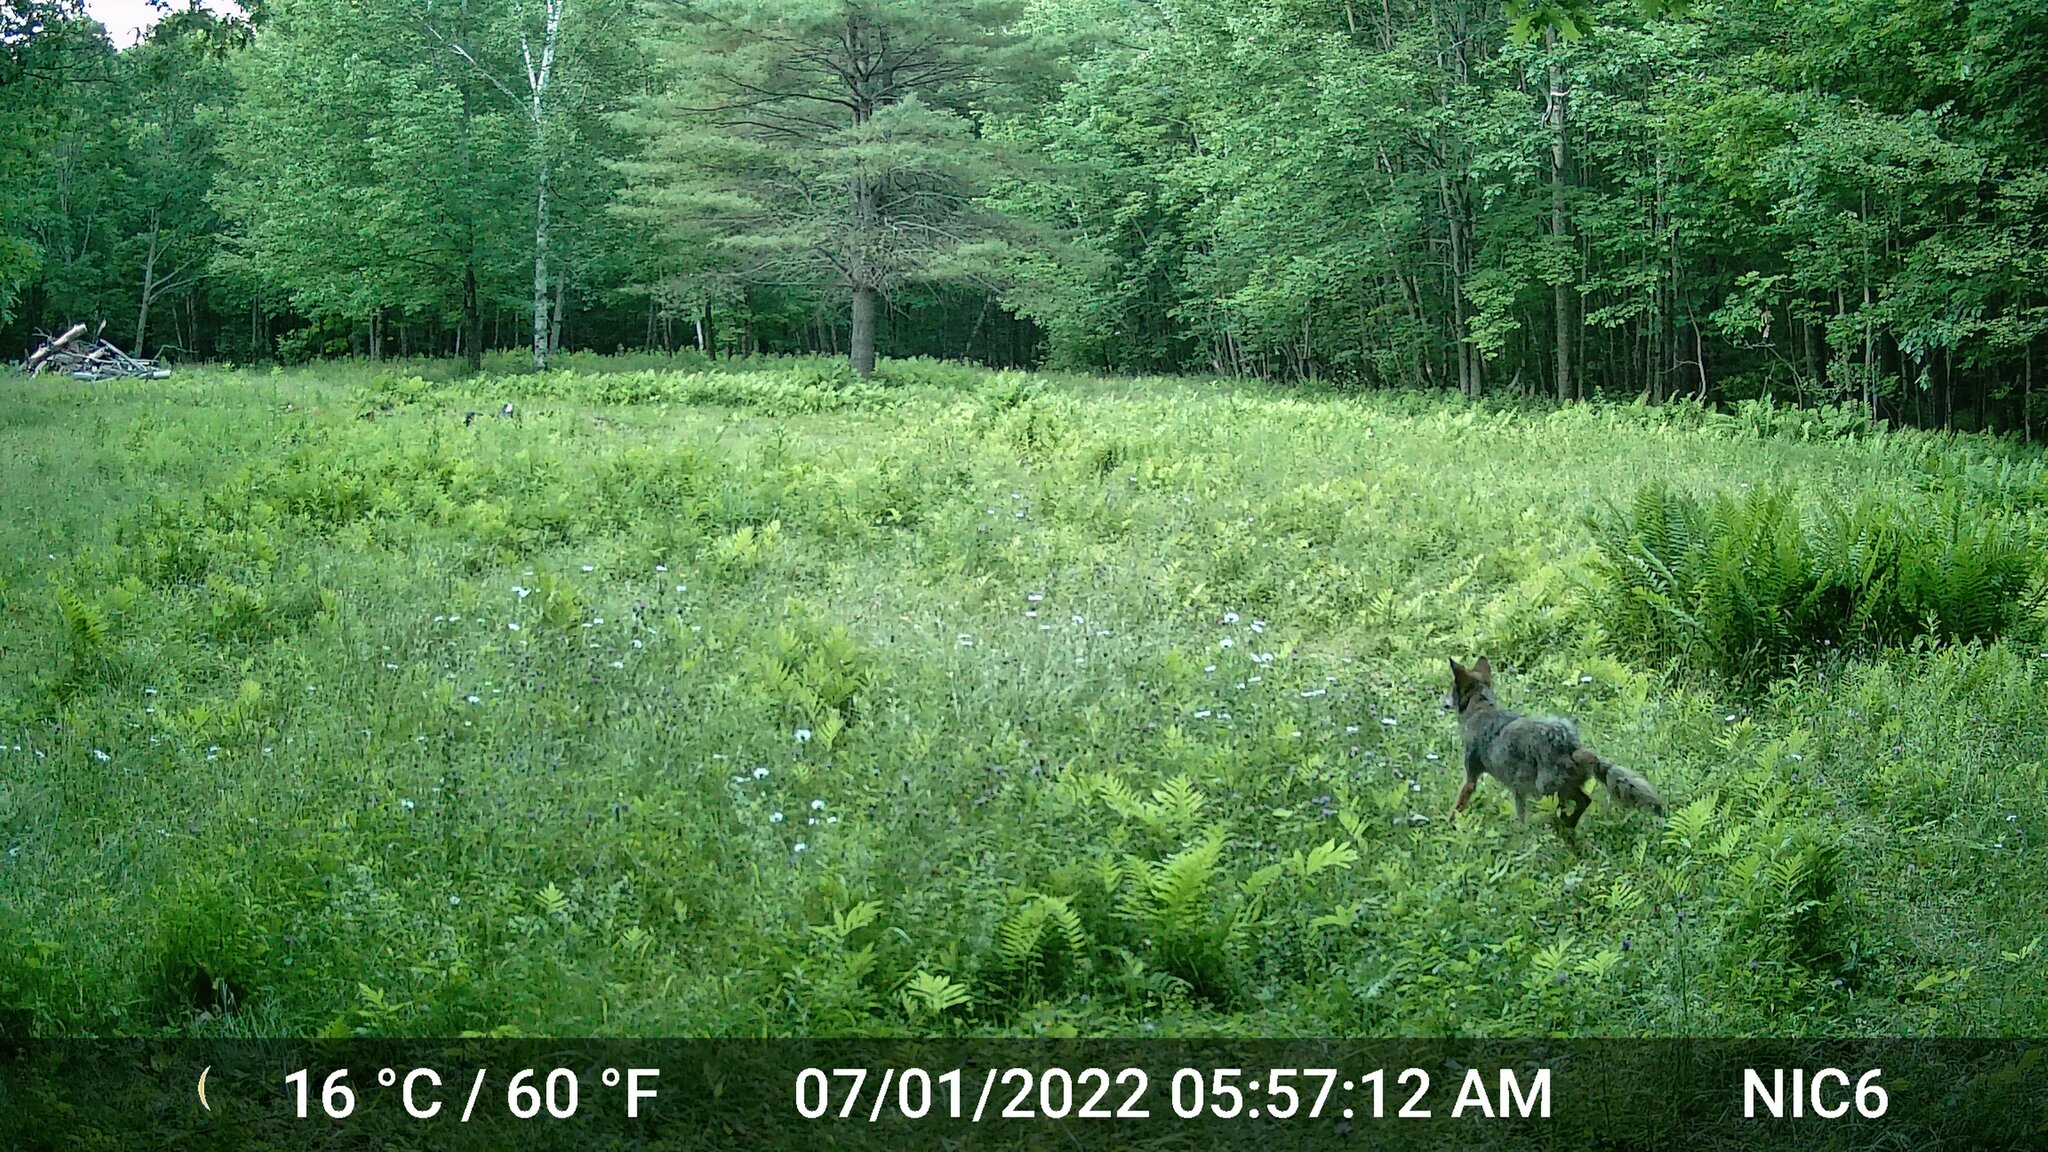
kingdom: Animalia
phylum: Chordata
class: Mammalia
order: Carnivora
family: Canidae
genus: Canis
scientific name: Canis latrans
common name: Coyote
